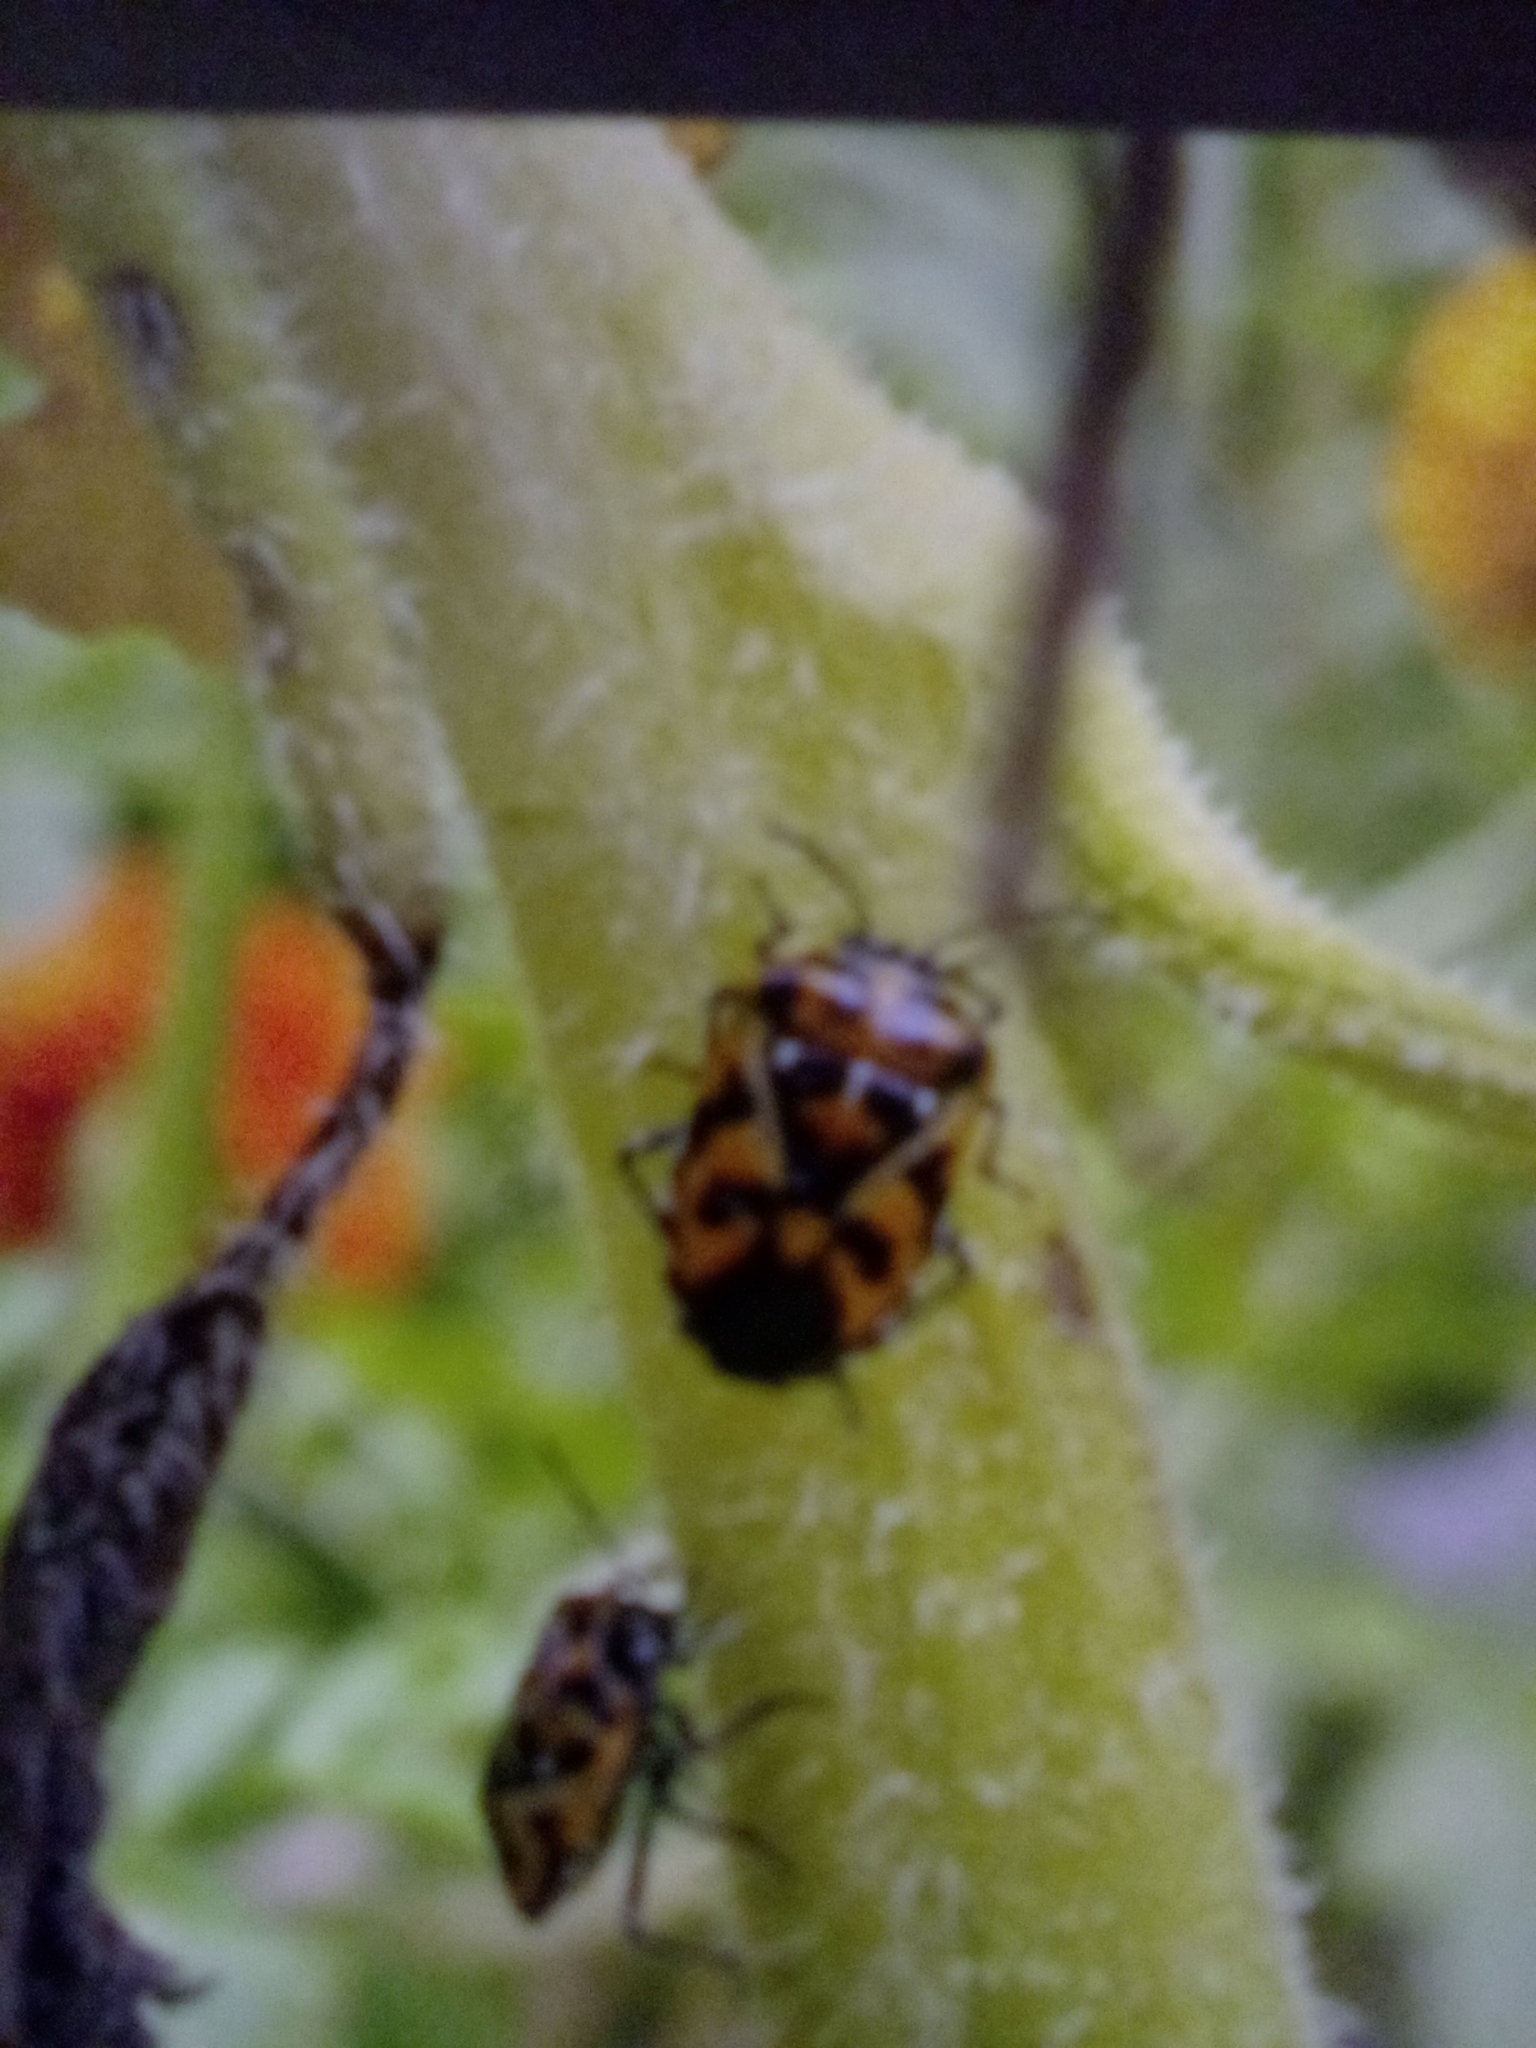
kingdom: Animalia
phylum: Arthropoda
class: Insecta
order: Hemiptera
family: Pentatomidae
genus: Murgantia
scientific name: Murgantia histrionica
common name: Harlequin bug
